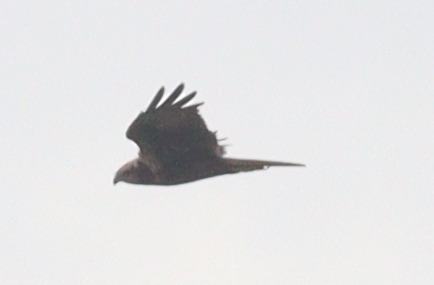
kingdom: Animalia
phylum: Chordata
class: Aves
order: Accipitriformes
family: Accipitridae
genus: Circus
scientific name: Circus aeruginosus
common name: Western marsh harrier
